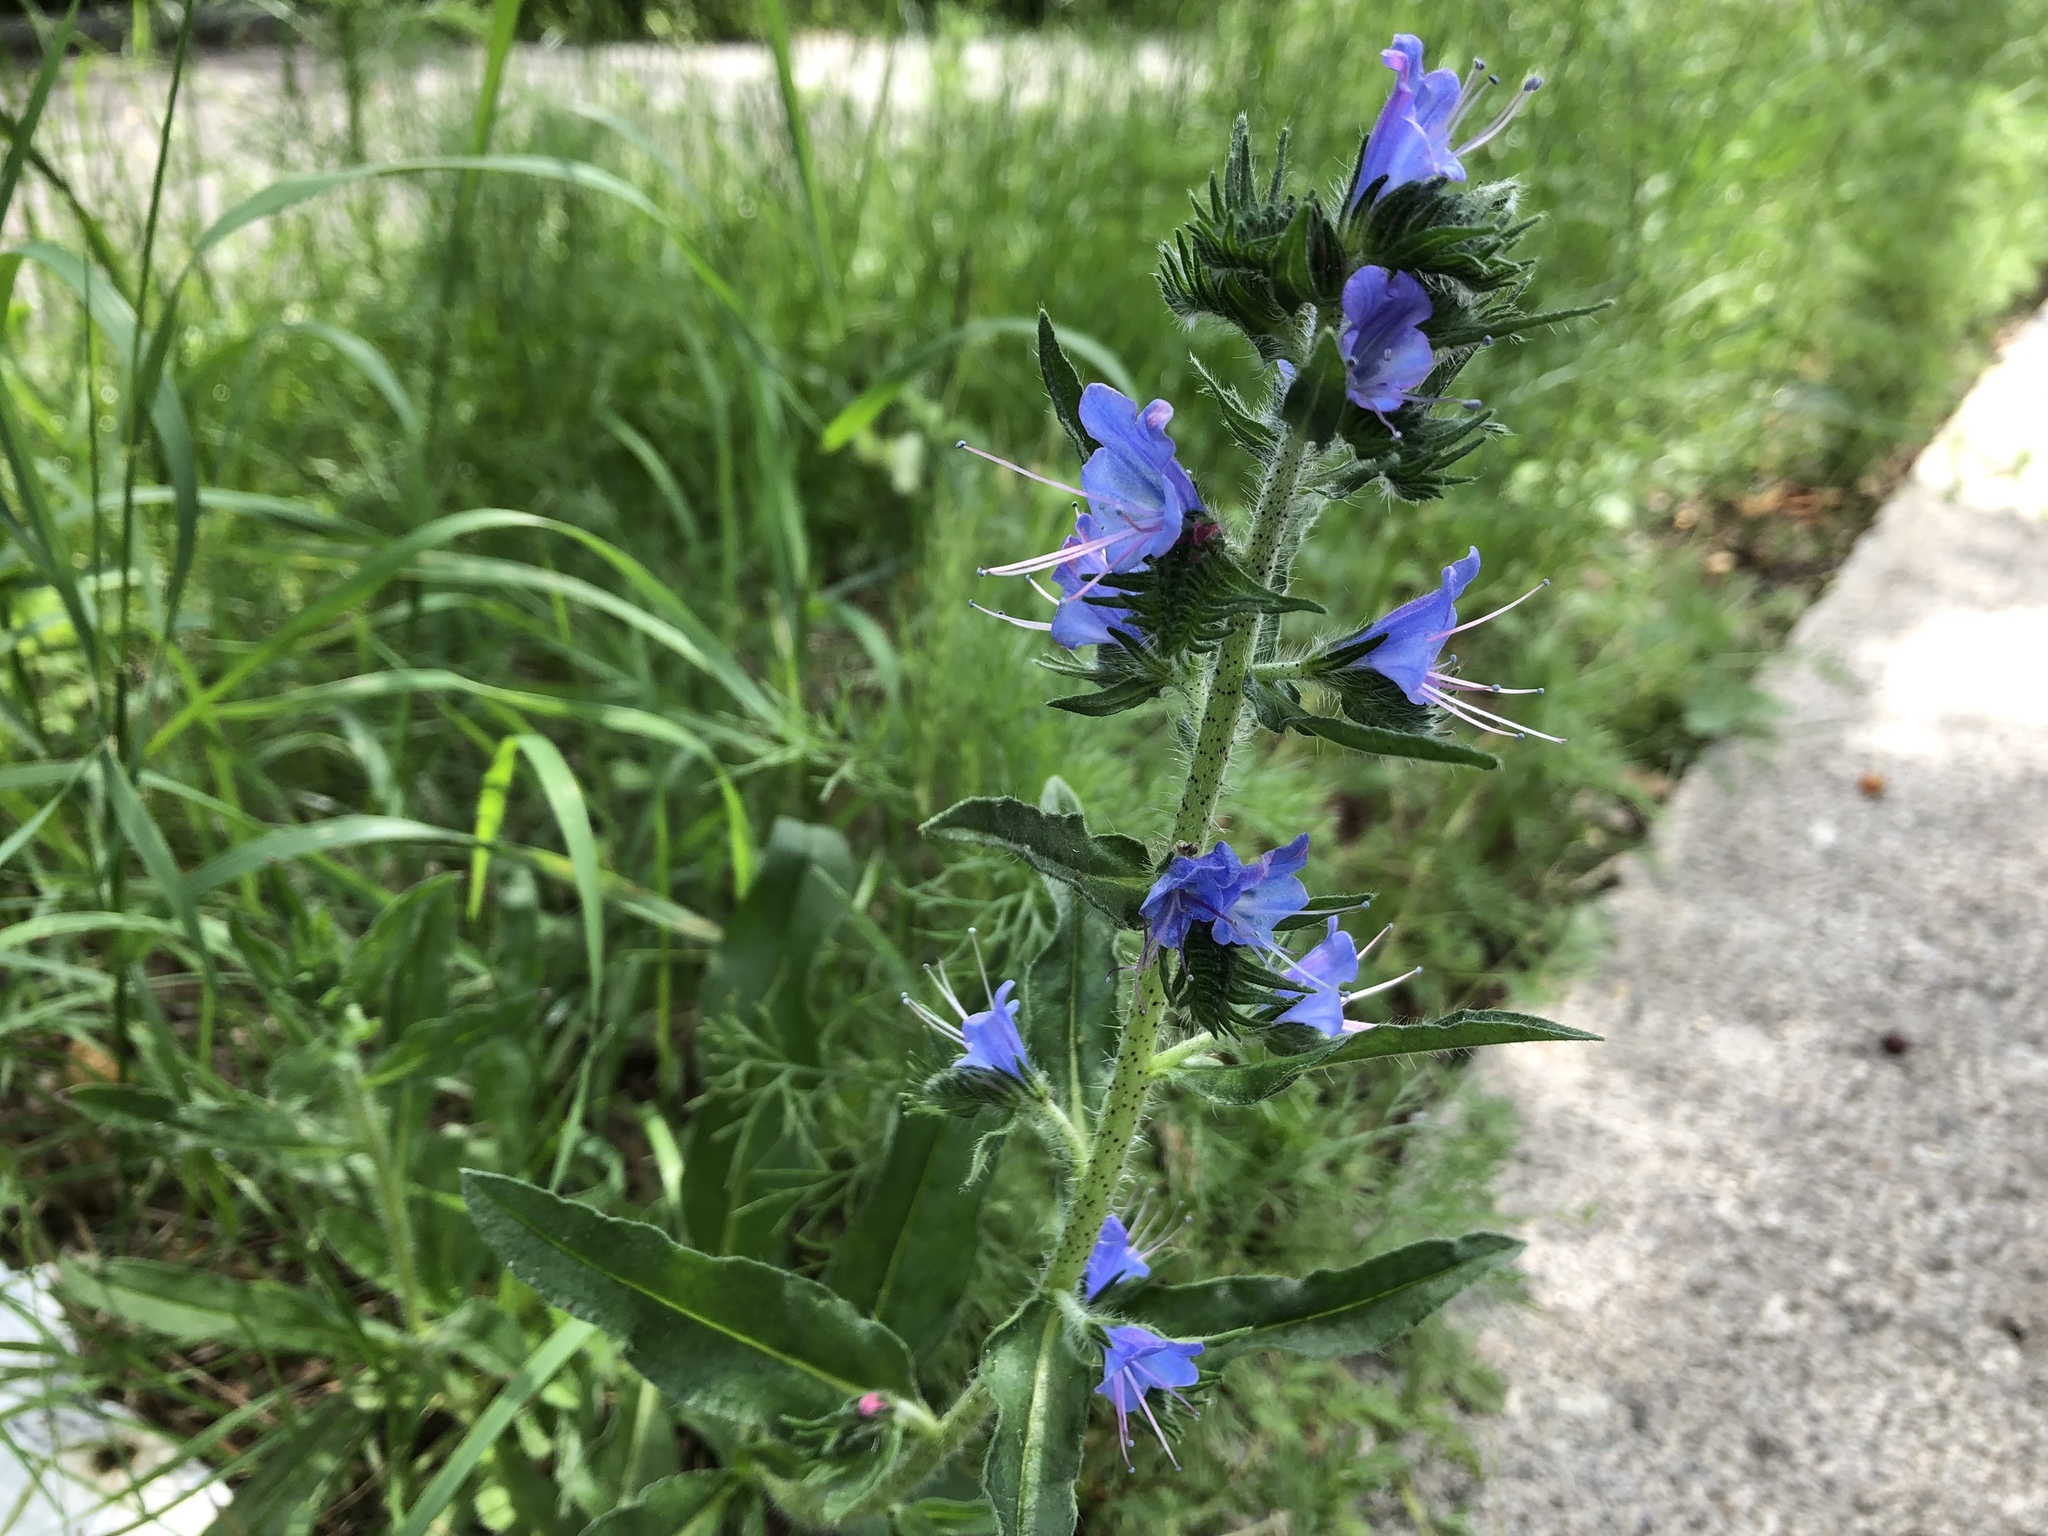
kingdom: Plantae
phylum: Tracheophyta
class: Magnoliopsida
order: Boraginales
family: Boraginaceae
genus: Echium
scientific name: Echium vulgare
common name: Common viper's bugloss
